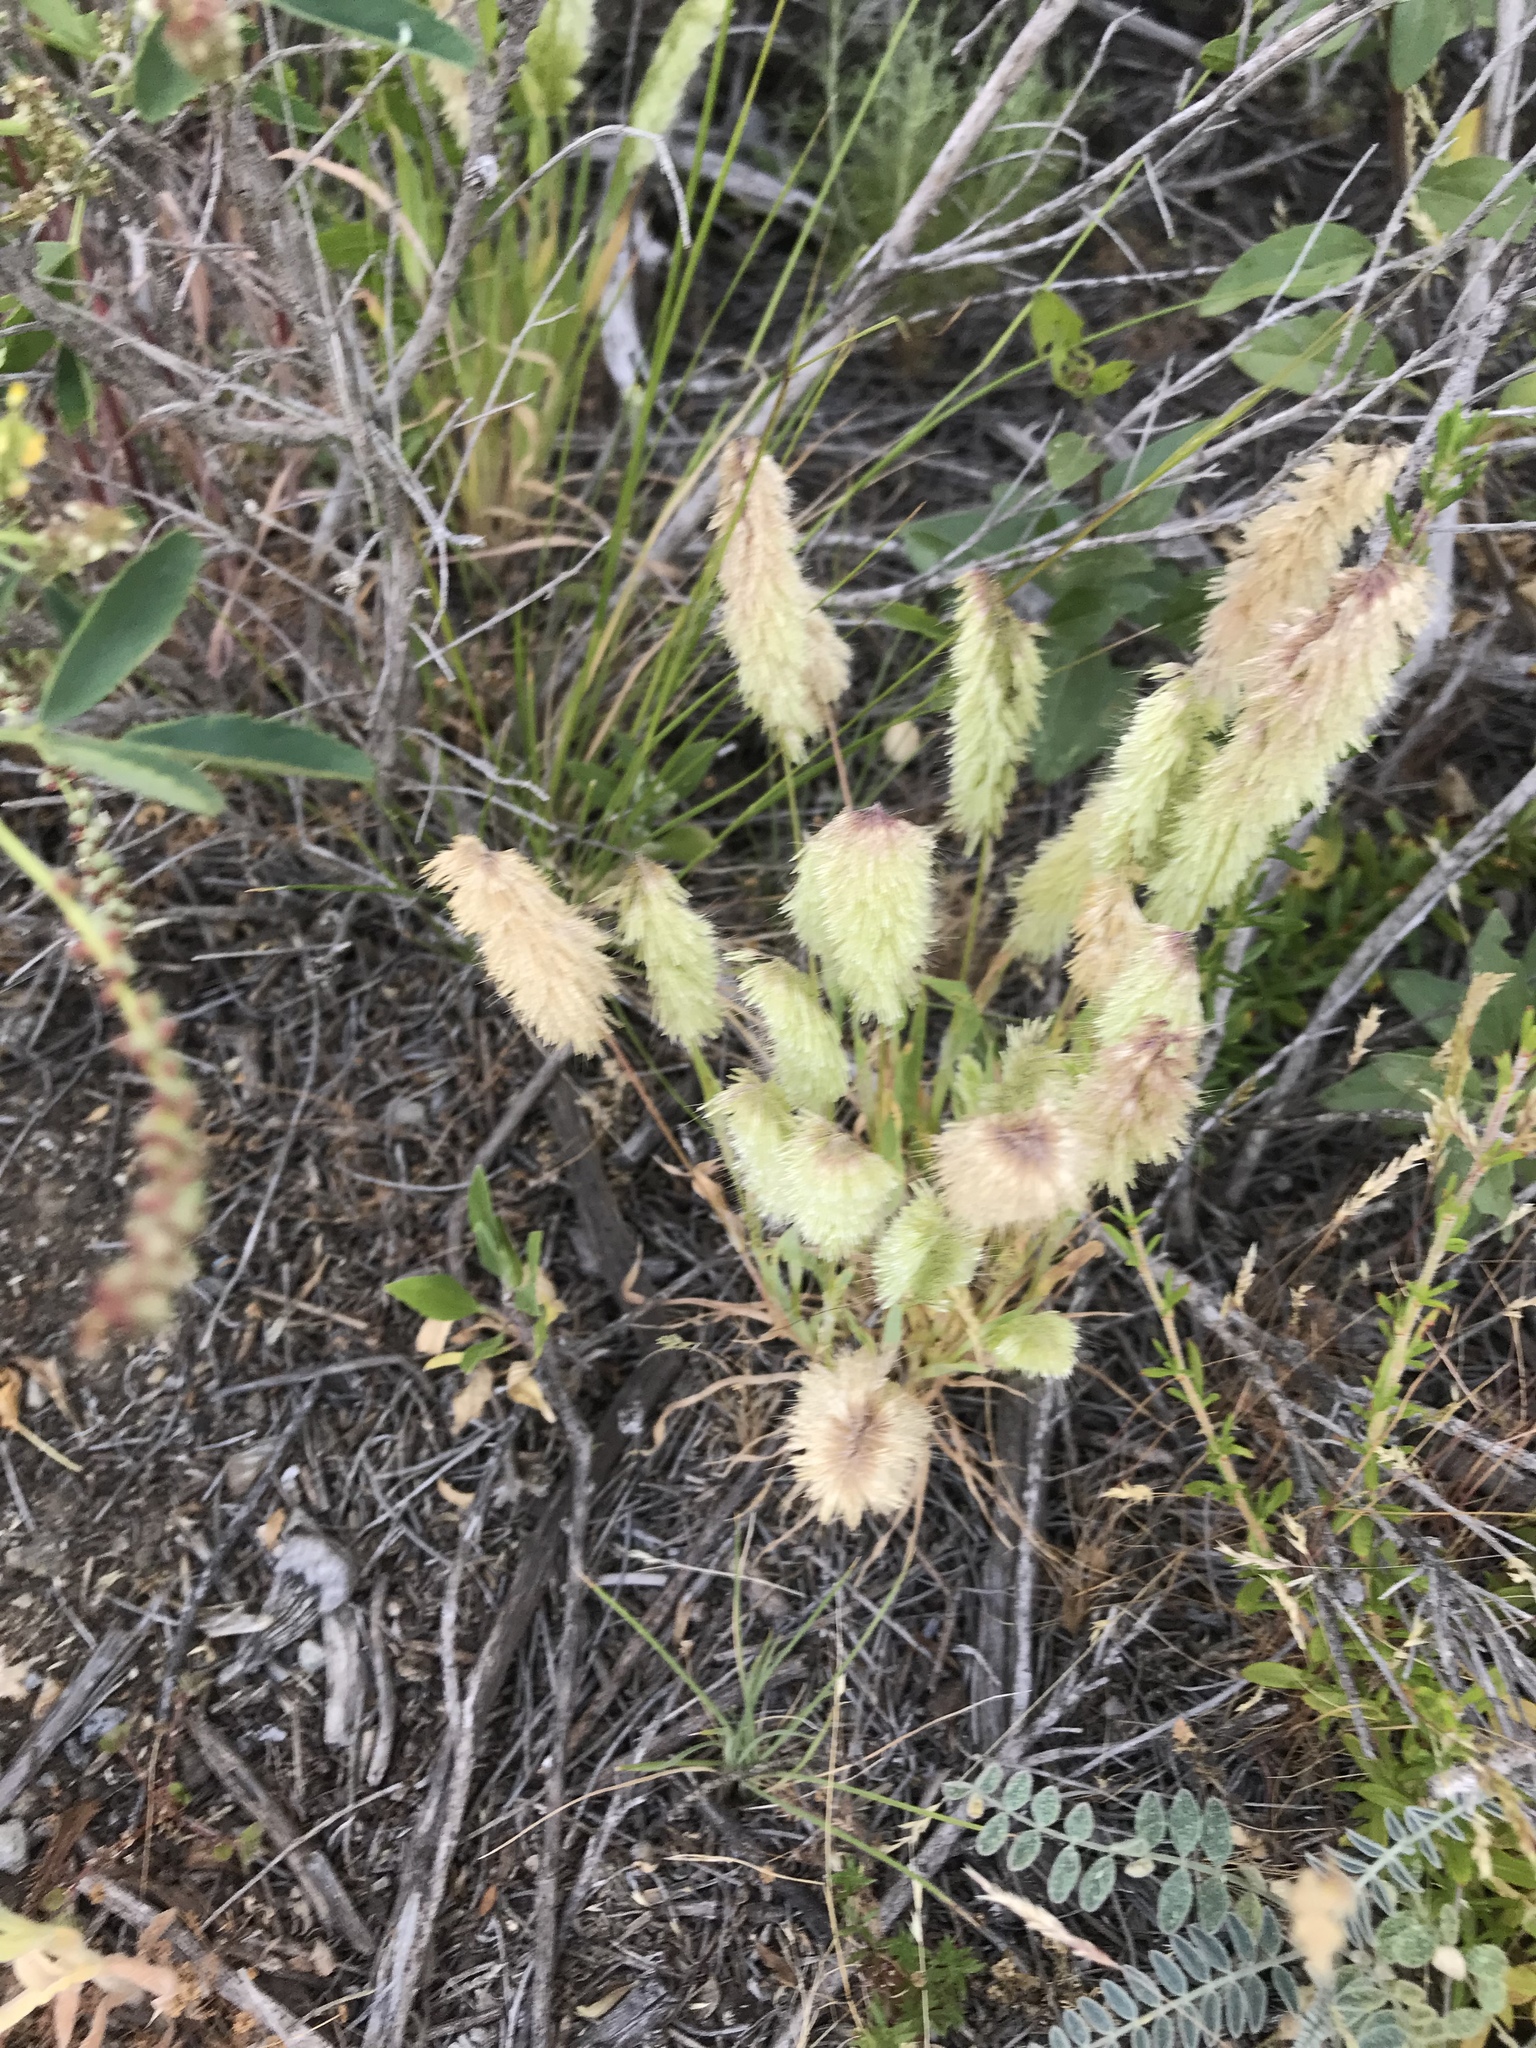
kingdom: Plantae
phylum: Tracheophyta
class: Liliopsida
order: Poales
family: Poaceae
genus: Lamarckia
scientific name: Lamarckia aurea
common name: Golden dog's-tail
